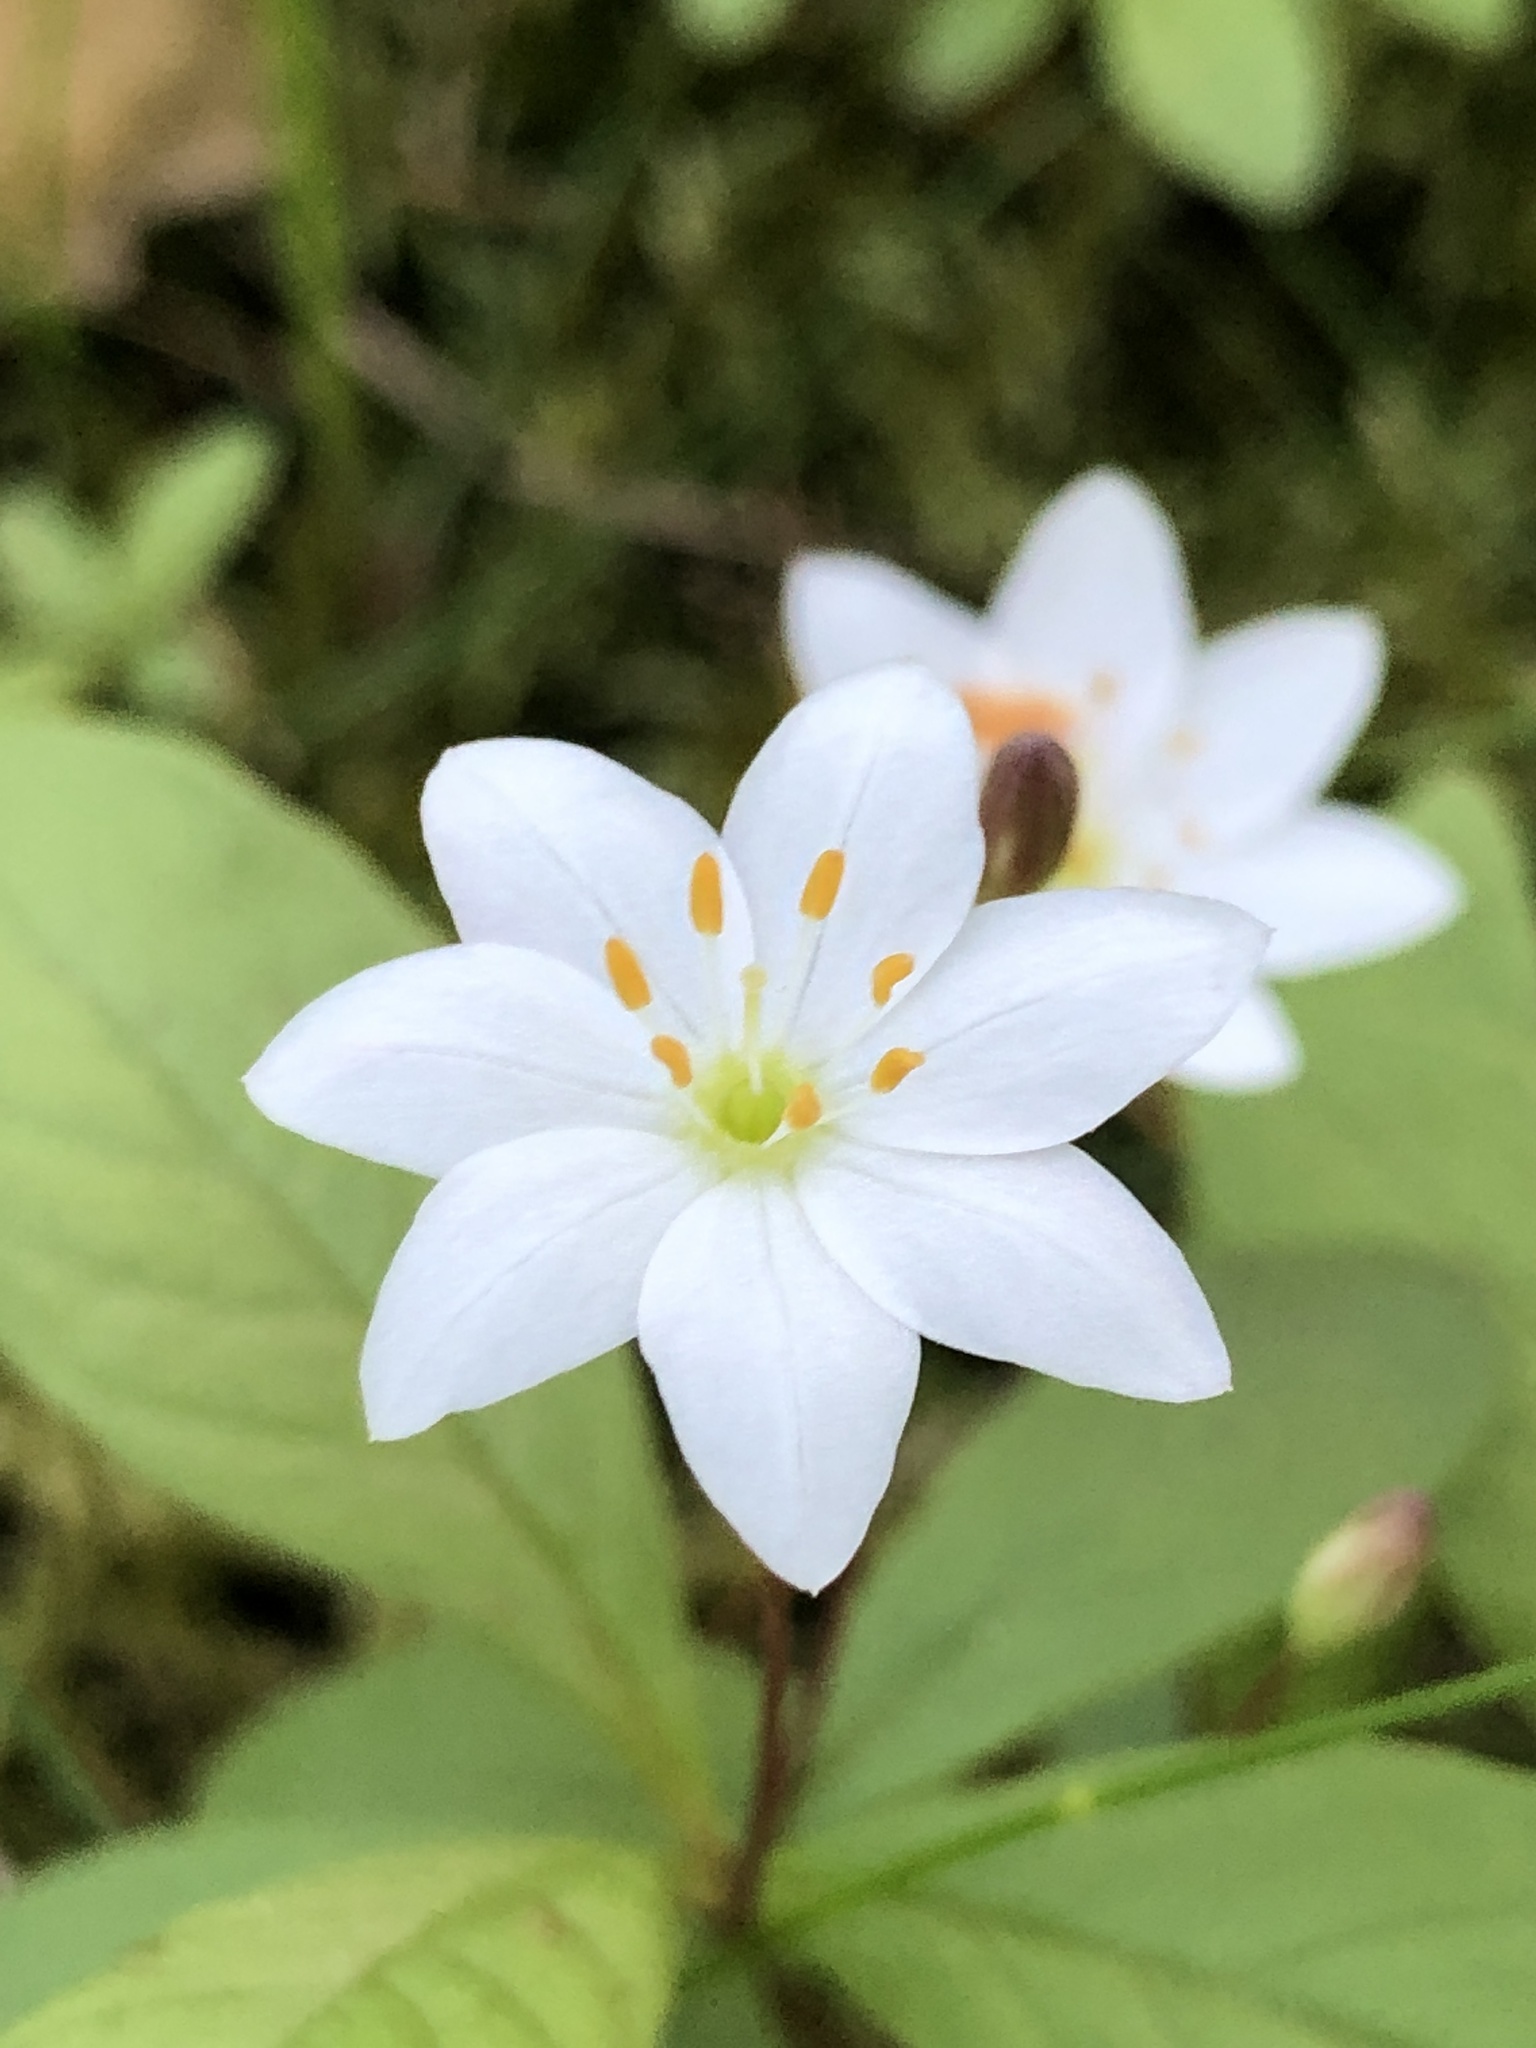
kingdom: Plantae
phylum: Tracheophyta
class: Magnoliopsida
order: Ericales
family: Primulaceae
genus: Lysimachia
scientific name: Lysimachia europaea
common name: Arctic starflower
